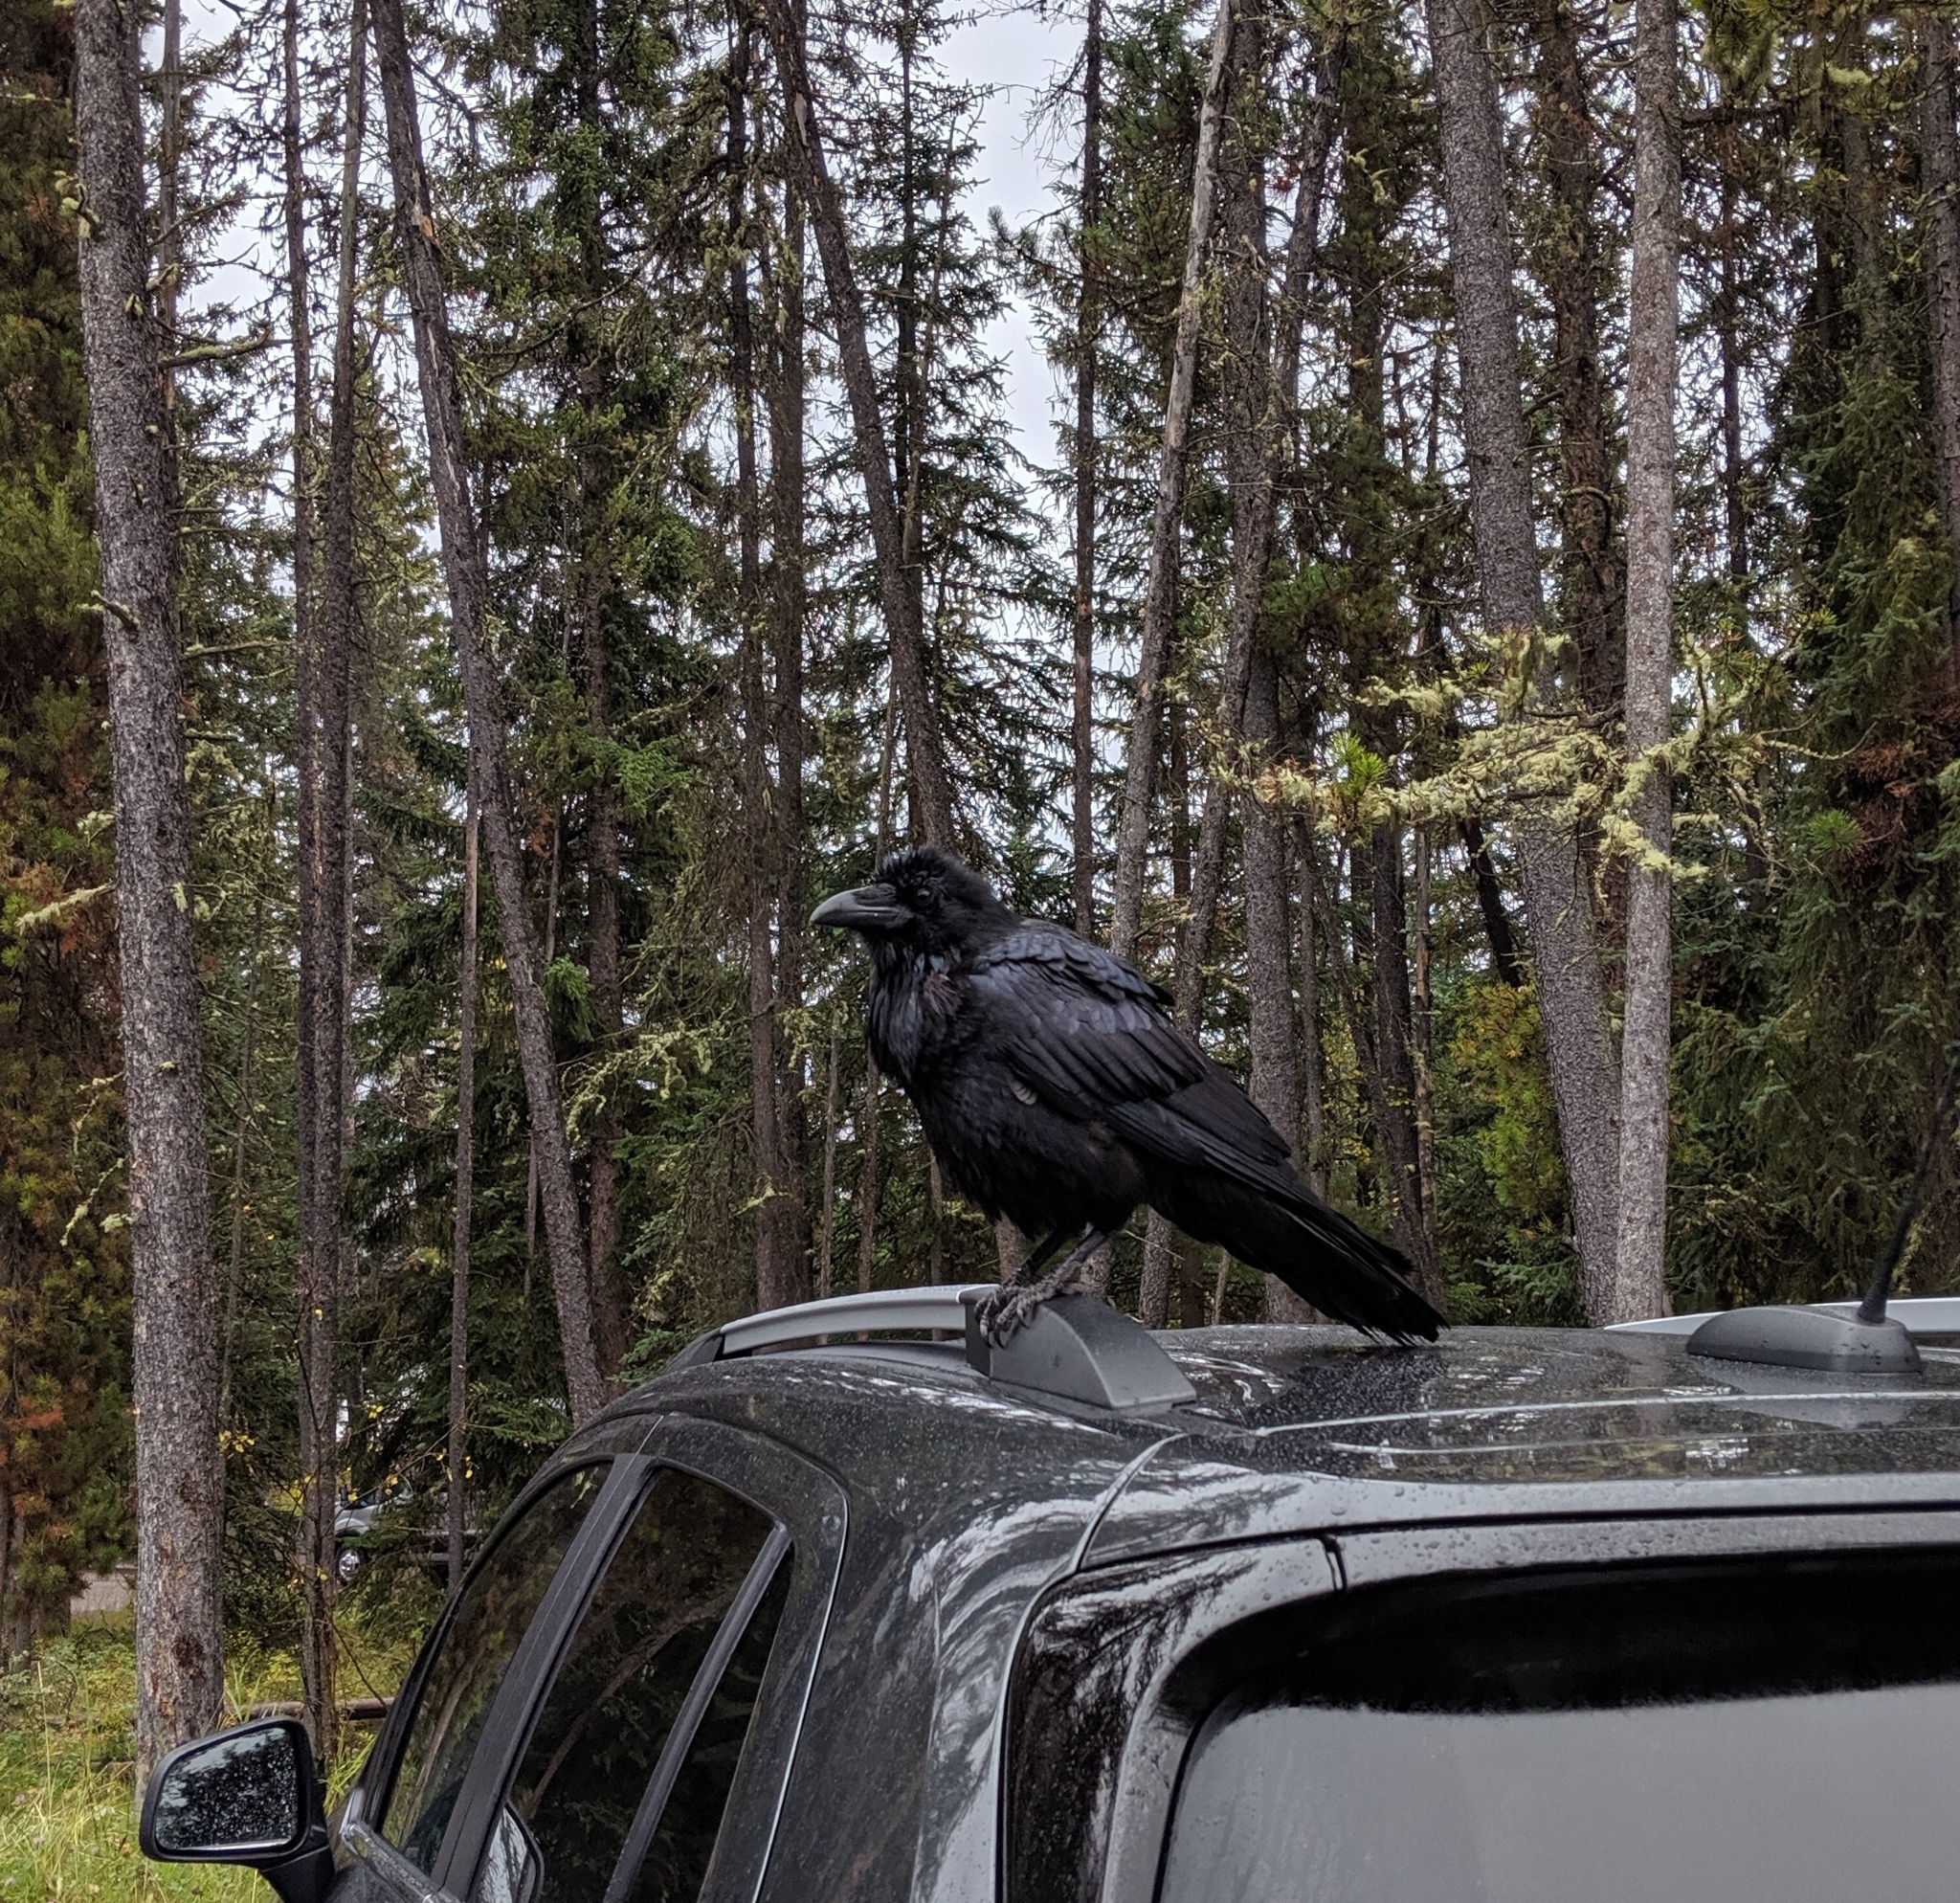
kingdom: Animalia
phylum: Chordata
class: Aves
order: Passeriformes
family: Corvidae
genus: Corvus
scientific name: Corvus corax
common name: Common raven
